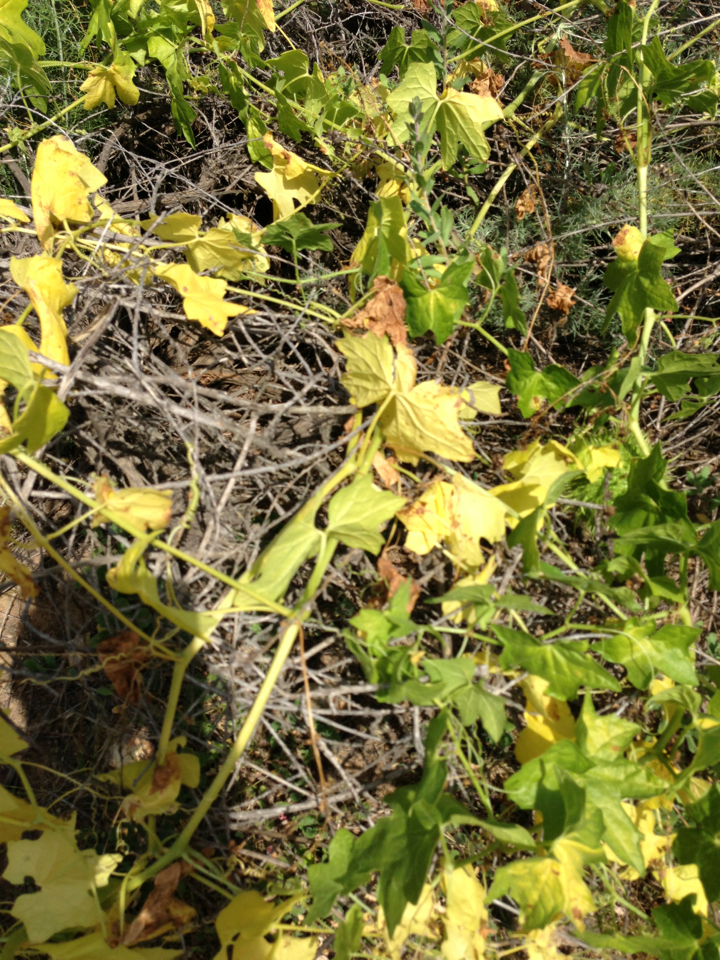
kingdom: Plantae
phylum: Tracheophyta
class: Magnoliopsida
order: Cucurbitales
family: Cucurbitaceae
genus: Marah
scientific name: Marah macrocarpa
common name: Cucamonga manroot
